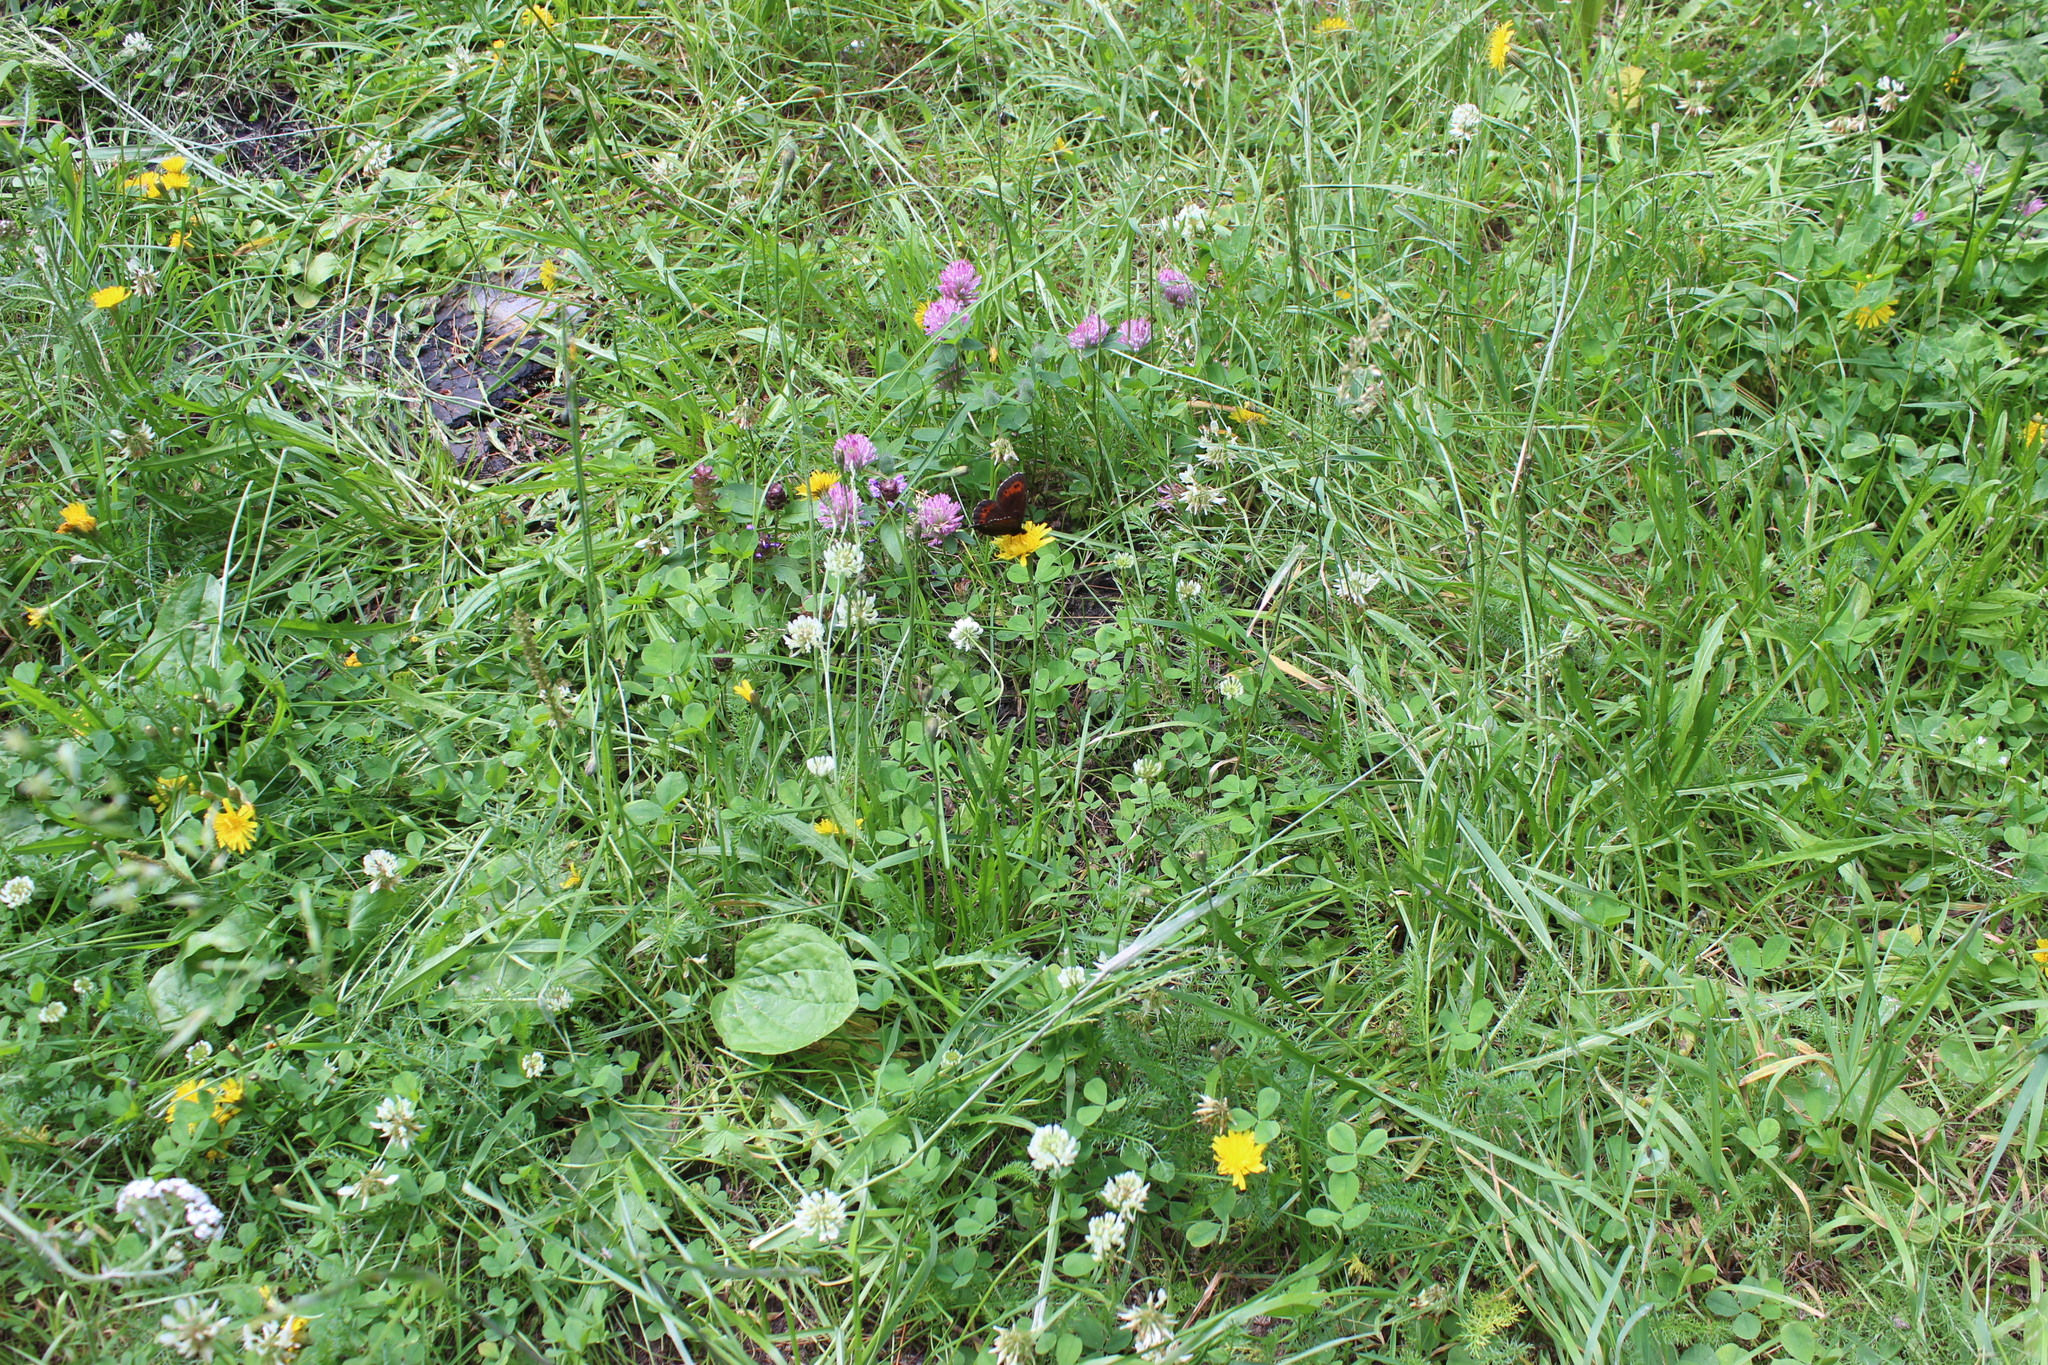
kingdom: Animalia
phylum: Arthropoda
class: Insecta
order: Lepidoptera
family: Nymphalidae
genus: Erebia
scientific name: Erebia ligea
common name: Arran brown
